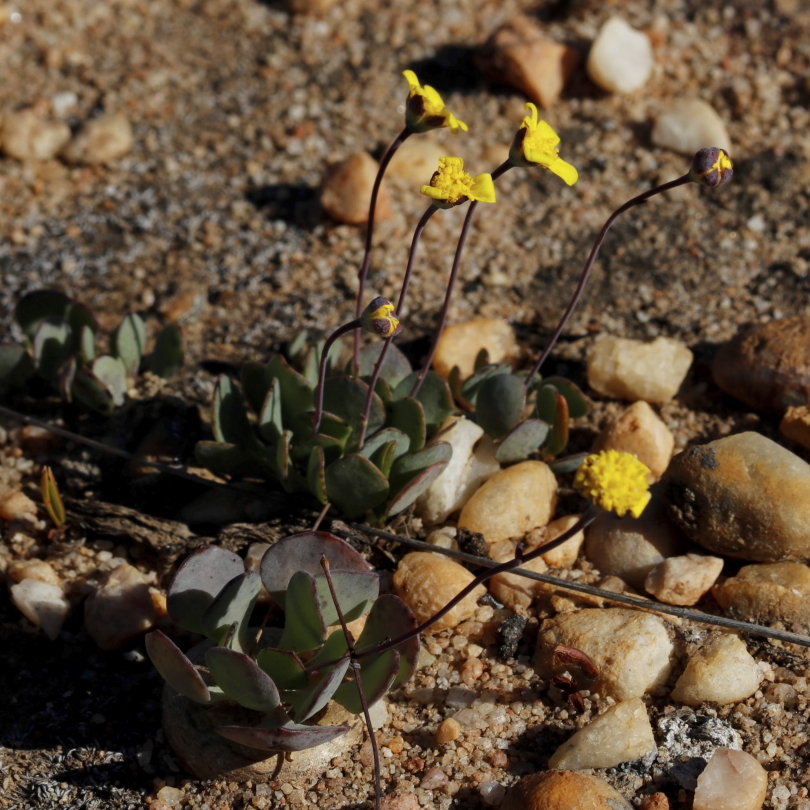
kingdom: Plantae
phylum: Tracheophyta
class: Magnoliopsida
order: Asterales
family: Asteraceae
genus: Crassothonna
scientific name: Crassothonna cacalioides
